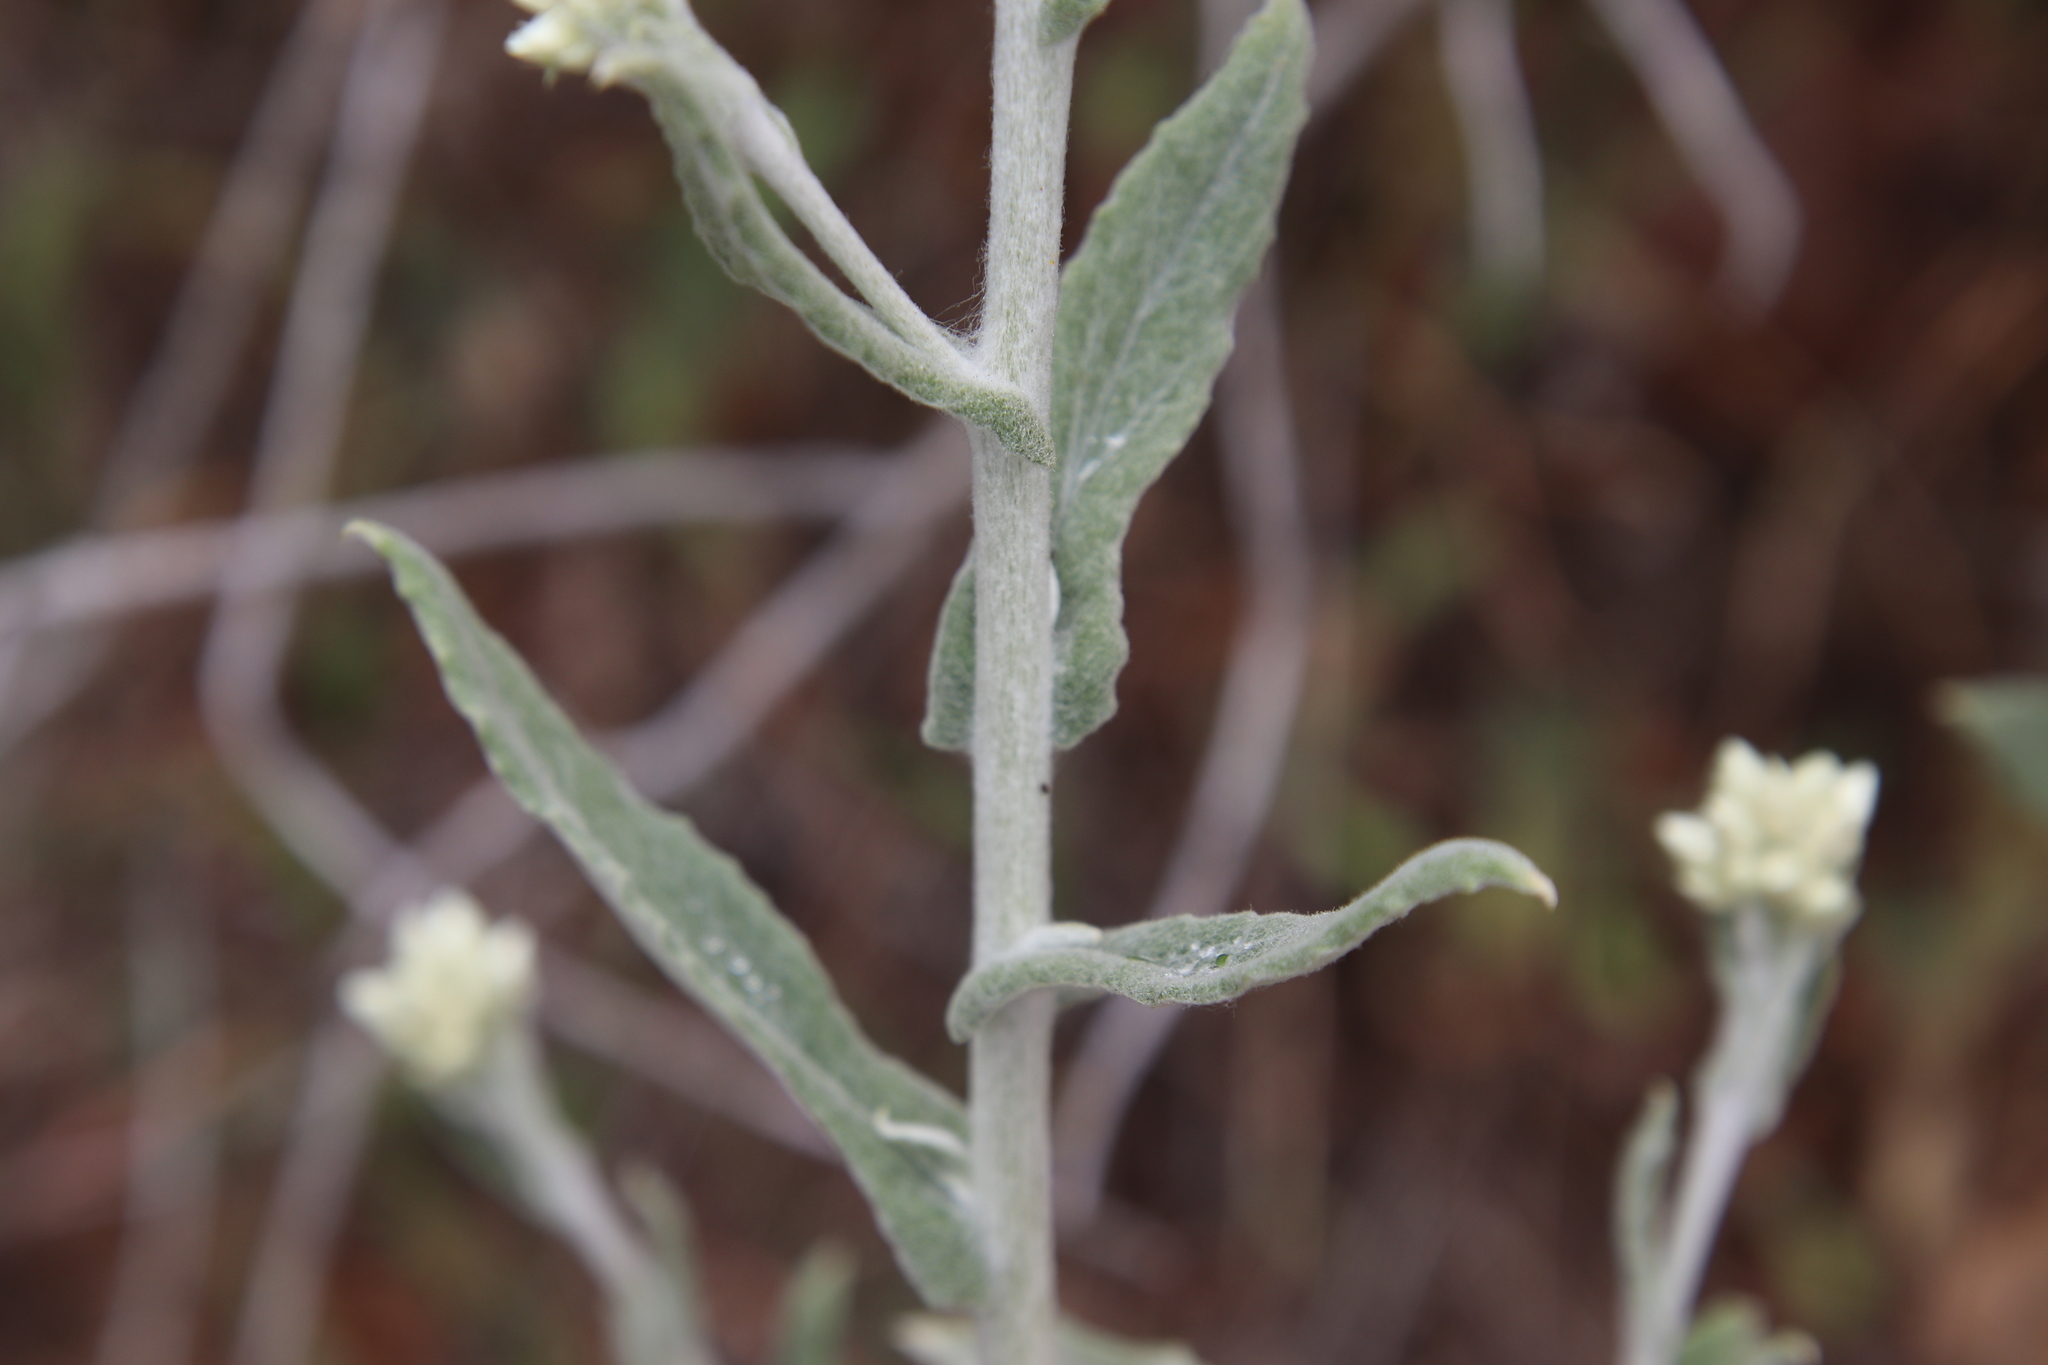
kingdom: Plantae
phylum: Tracheophyta
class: Magnoliopsida
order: Asterales
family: Asteraceae
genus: Pseudognaphalium
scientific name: Pseudognaphalium biolettii
